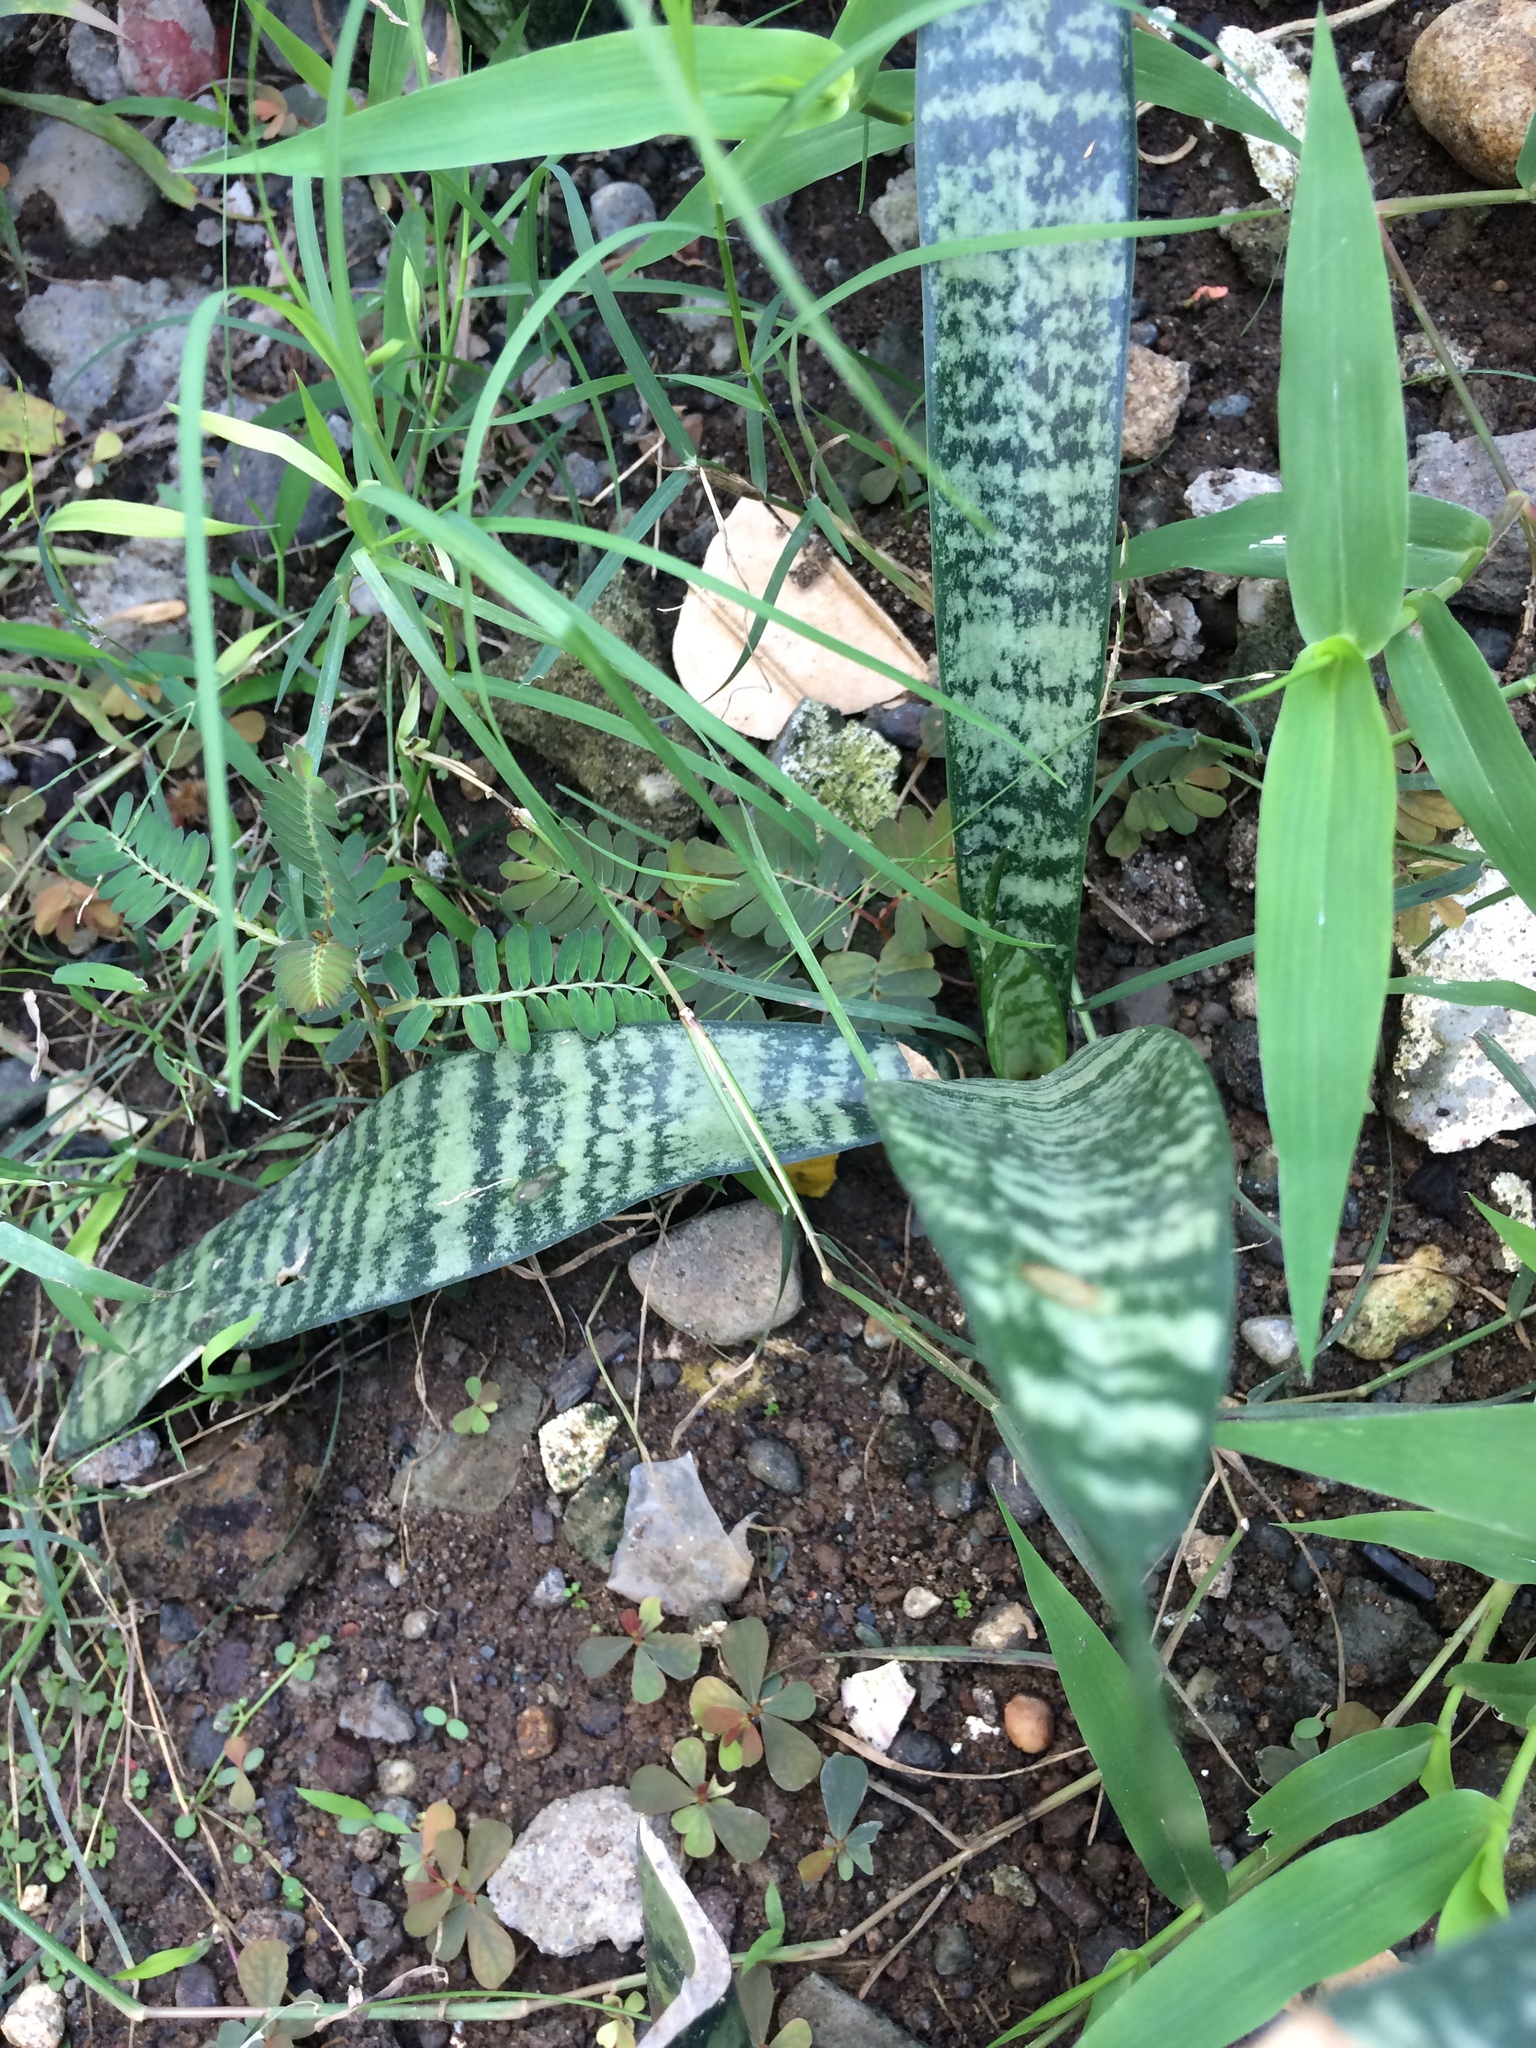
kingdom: Plantae
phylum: Tracheophyta
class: Liliopsida
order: Asparagales
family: Asparagaceae
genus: Dracaena
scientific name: Dracaena trifasciata
